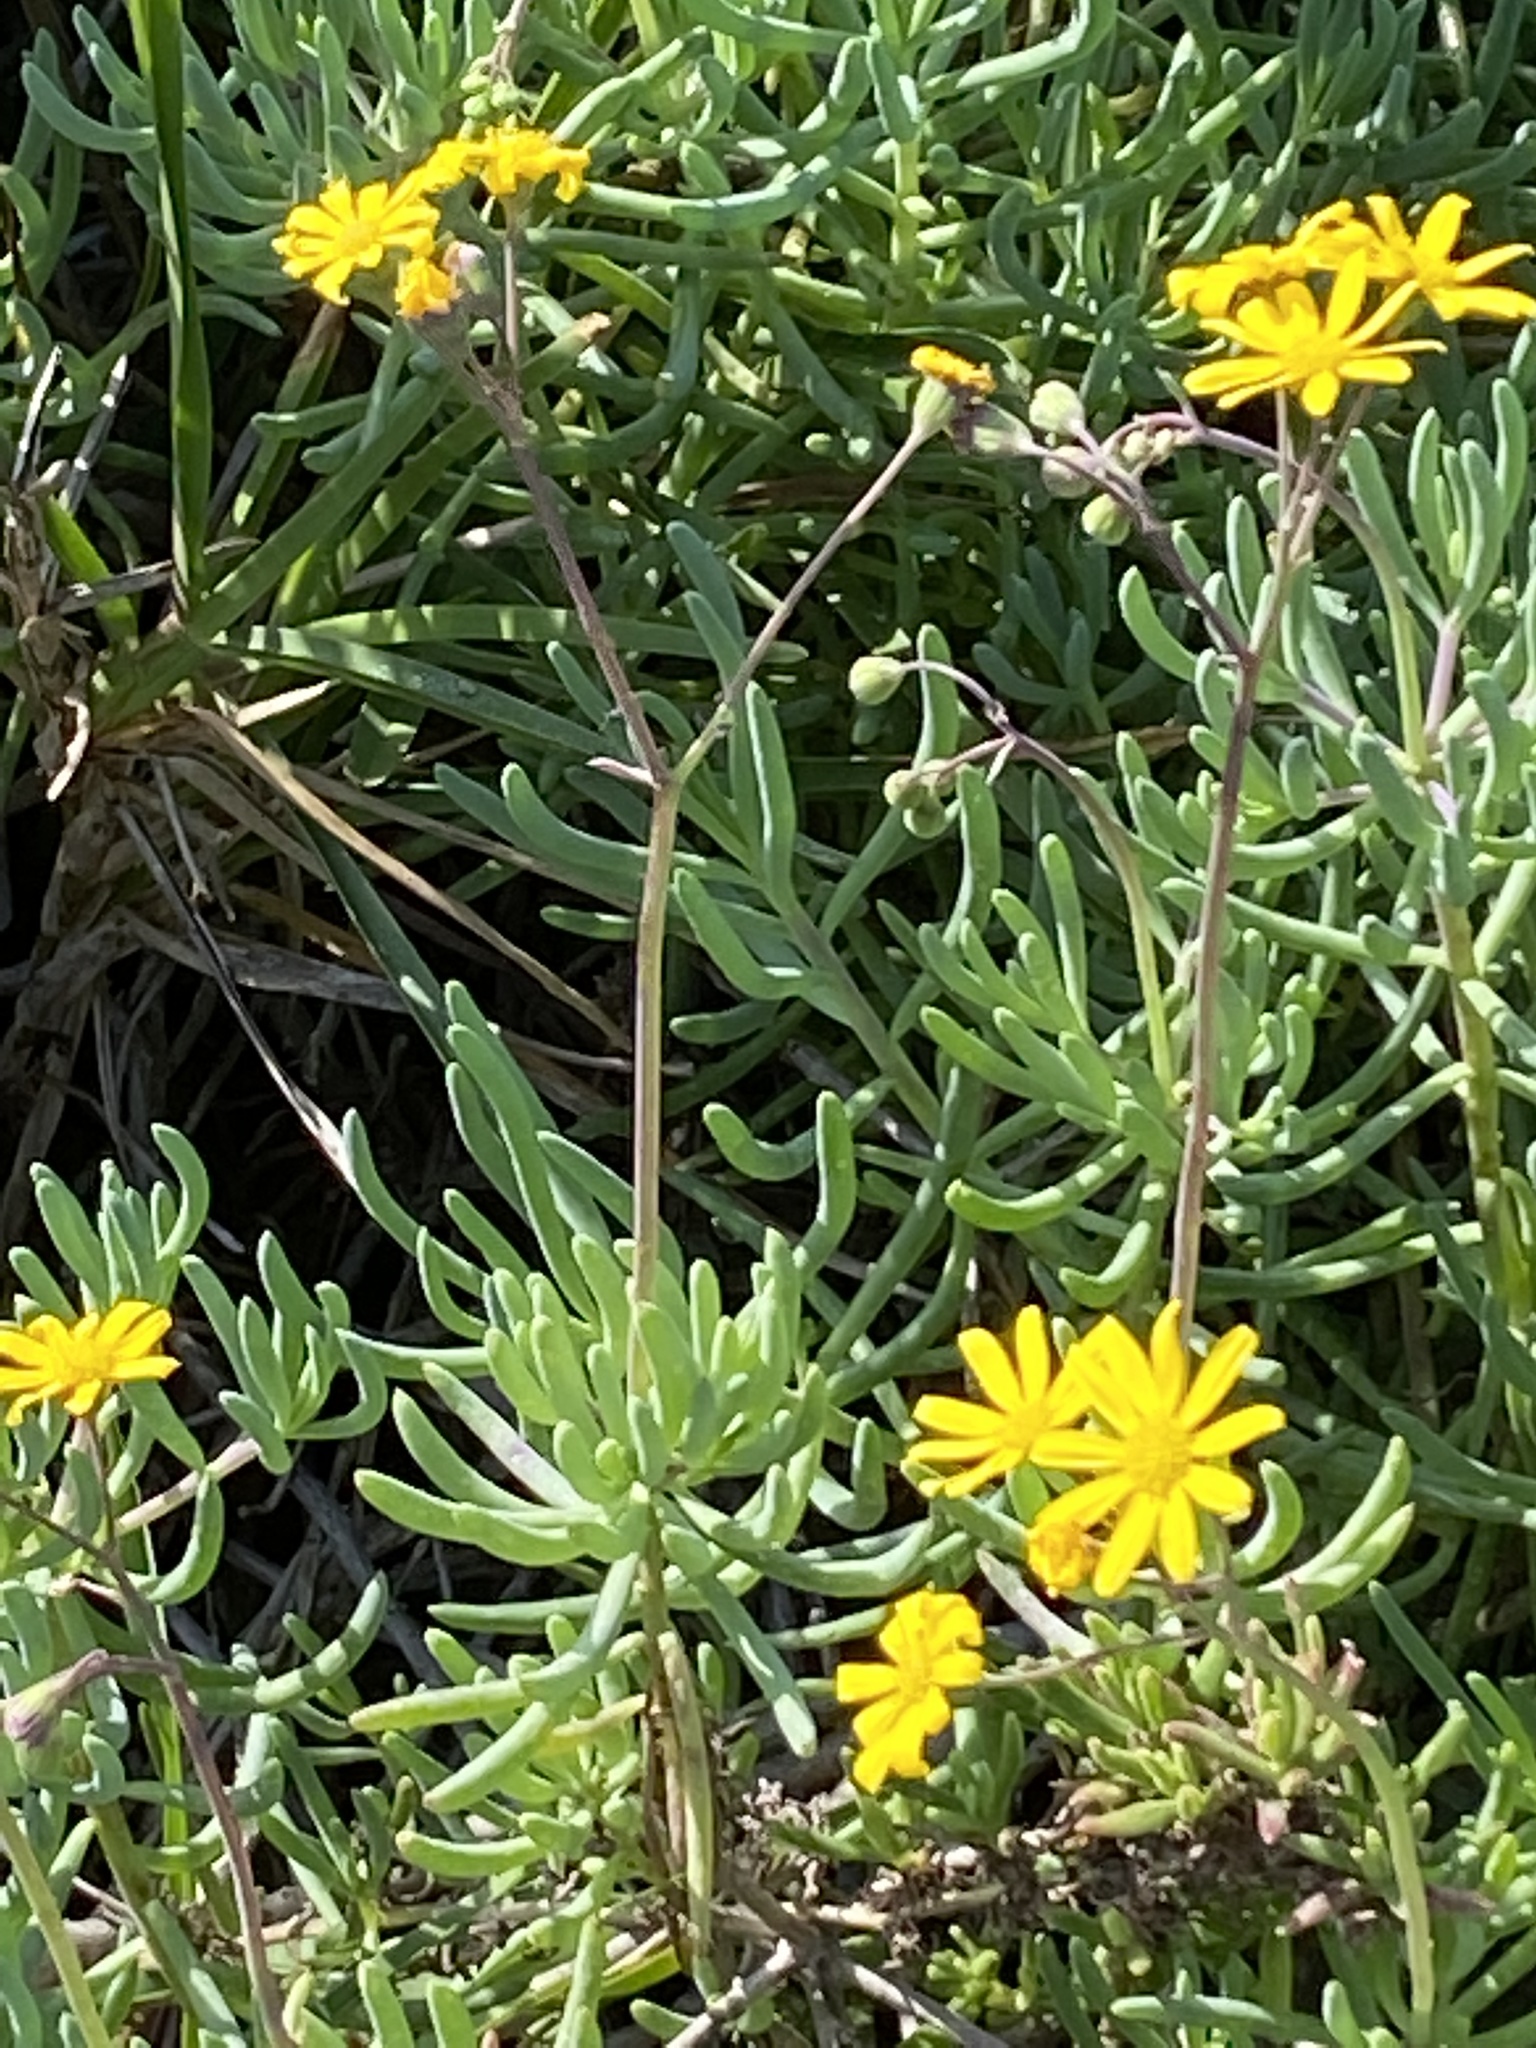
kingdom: Plantae
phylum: Tracheophyta
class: Magnoliopsida
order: Asterales
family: Asteraceae
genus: Crassothonna
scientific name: Crassothonna cacalioides
